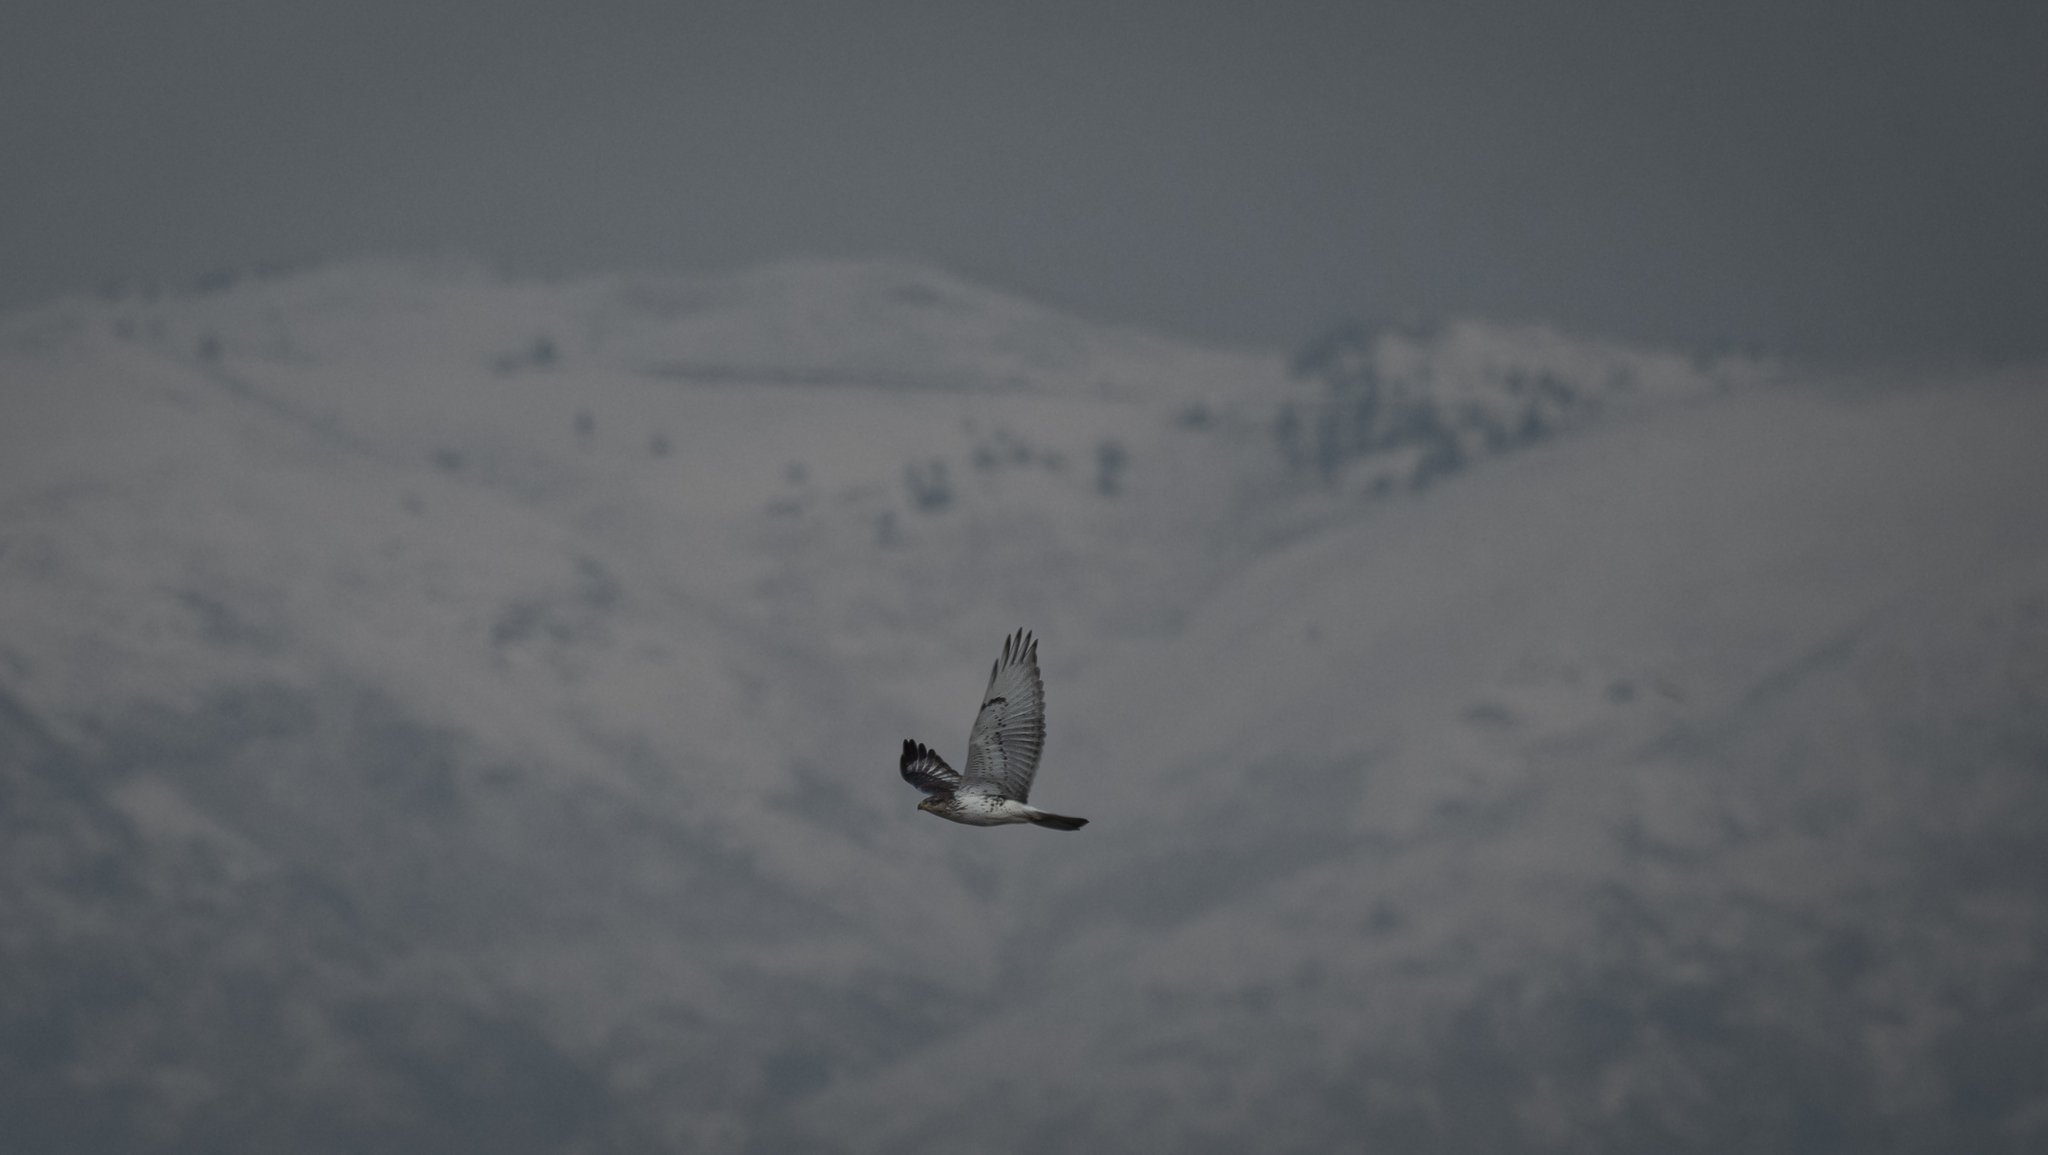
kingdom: Animalia
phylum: Chordata
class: Aves
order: Accipitriformes
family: Accipitridae
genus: Buteo
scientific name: Buteo regalis
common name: Ferruginous hawk
